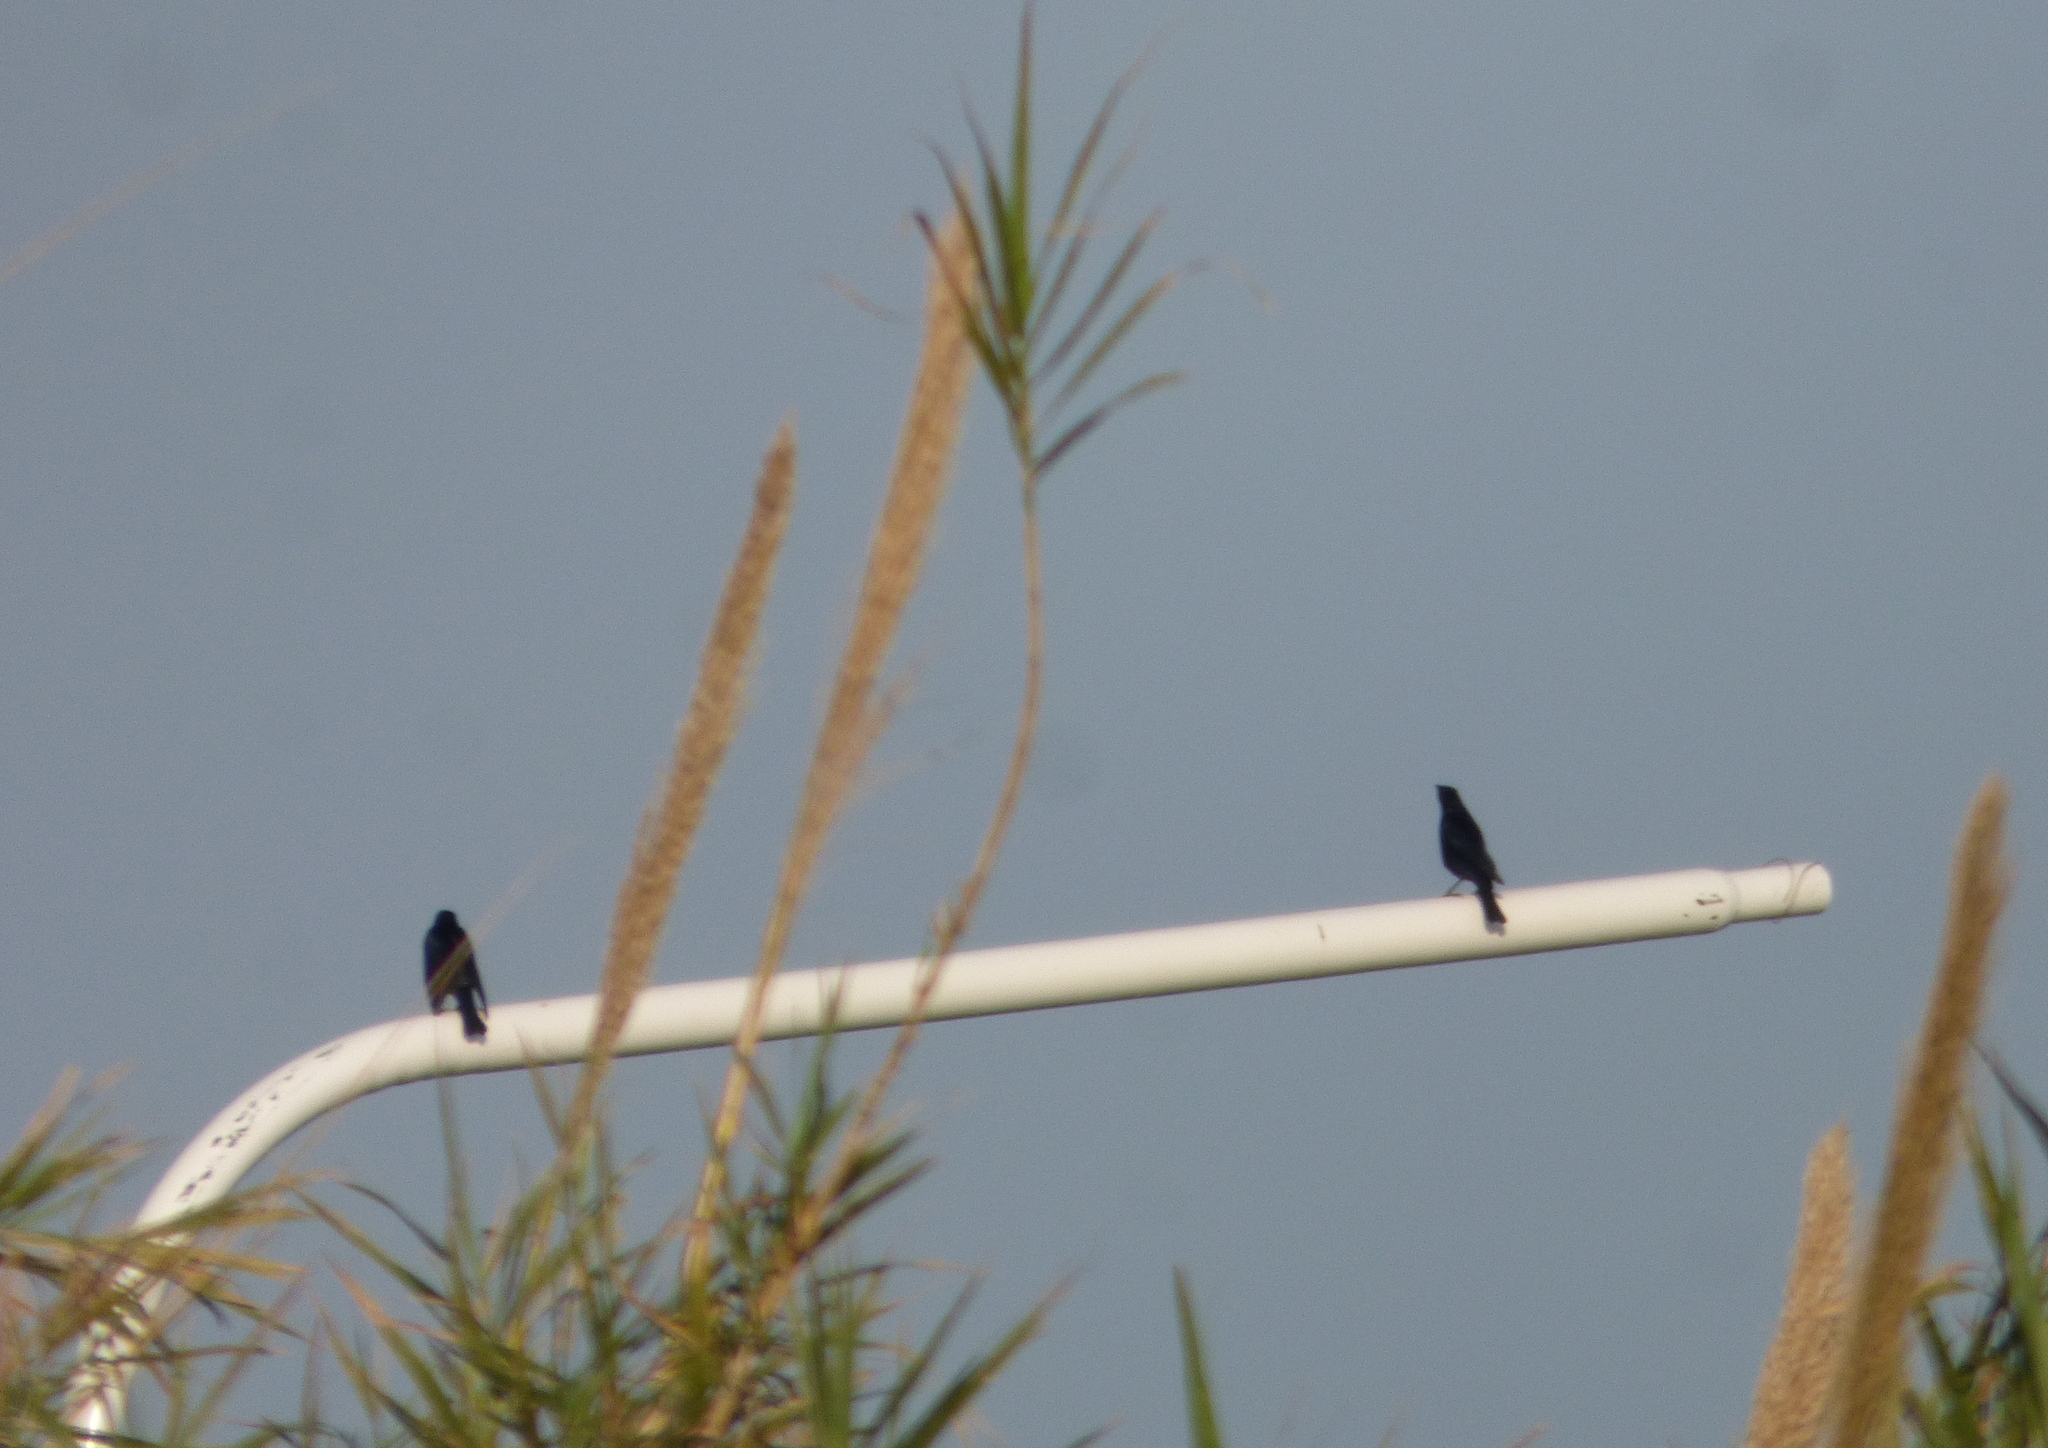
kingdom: Animalia
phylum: Chordata
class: Aves
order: Passeriformes
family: Icteridae
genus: Molothrus
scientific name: Molothrus bonariensis
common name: Shiny cowbird
